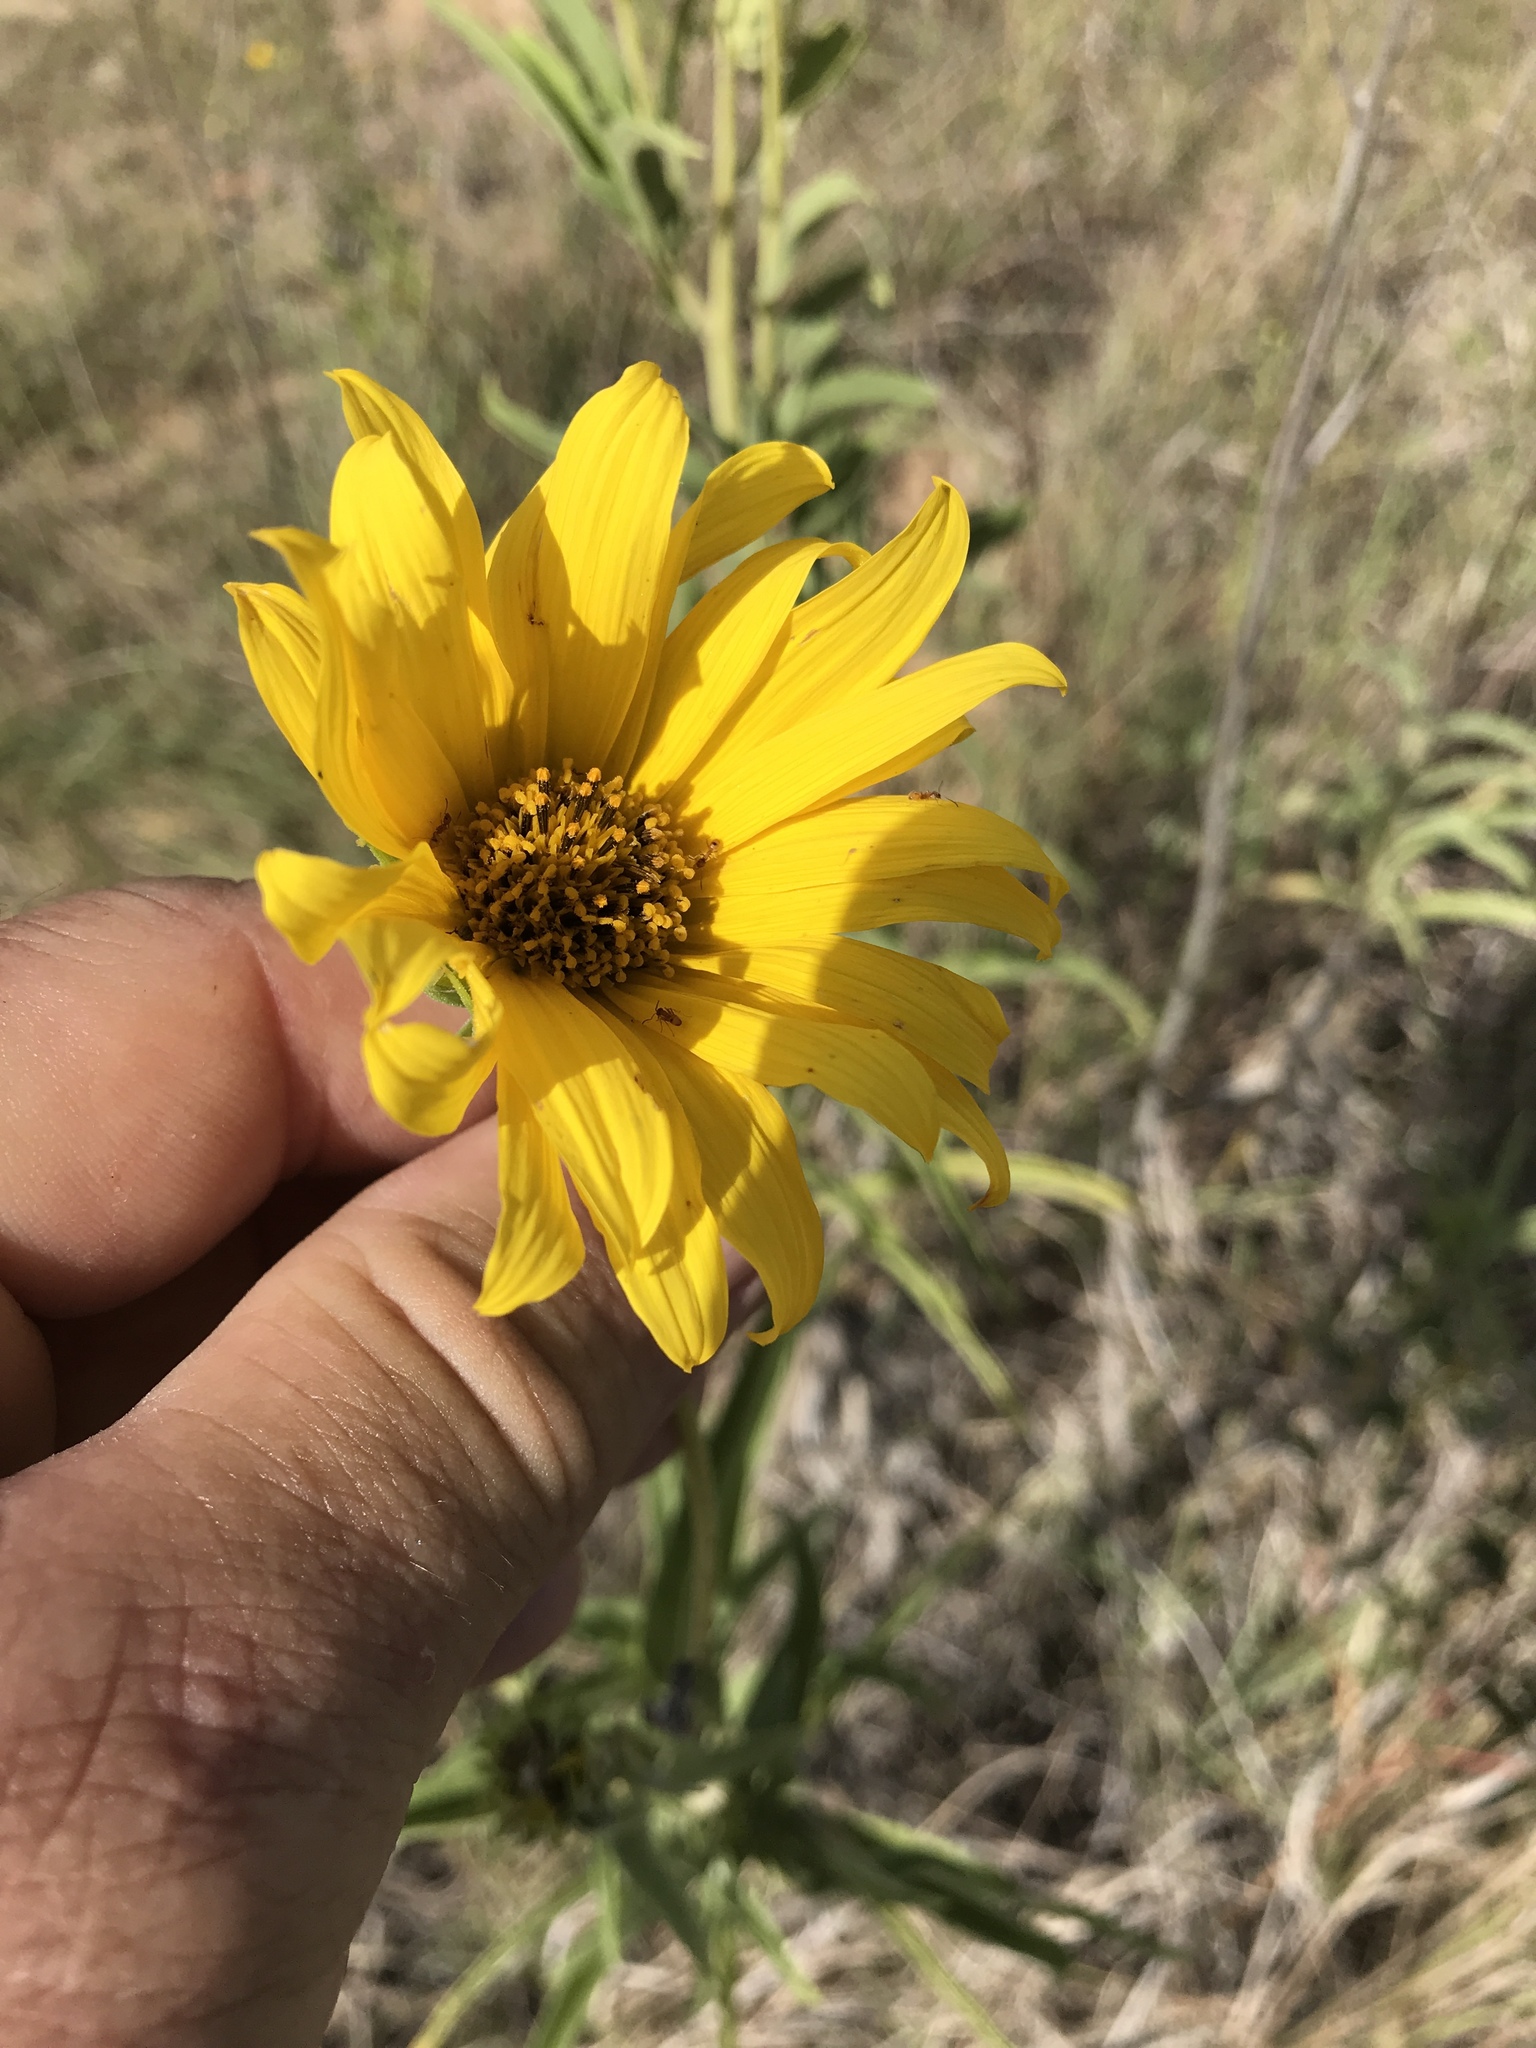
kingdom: Plantae
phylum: Tracheophyta
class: Magnoliopsida
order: Asterales
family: Asteraceae
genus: Helianthus
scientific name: Helianthus maximiliani
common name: Maximilian's sunflower
